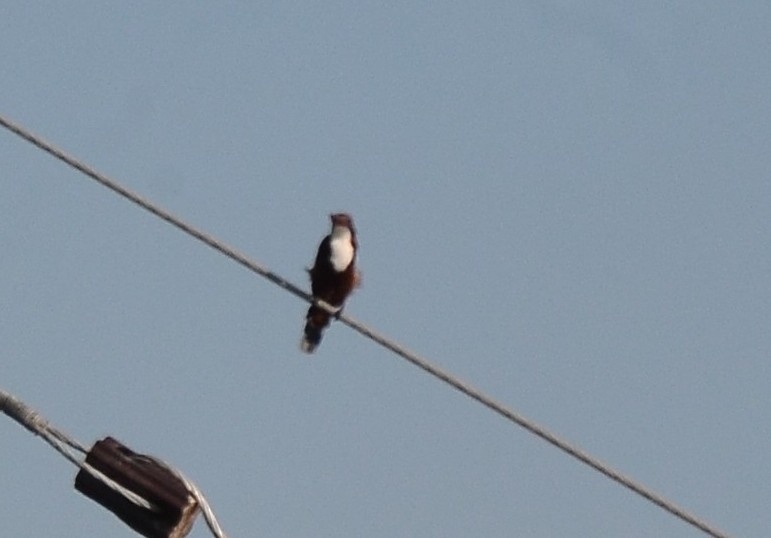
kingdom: Animalia
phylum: Chordata
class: Aves
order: Coraciiformes
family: Alcedinidae
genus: Halcyon
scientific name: Halcyon smyrnensis
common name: White-throated kingfisher
